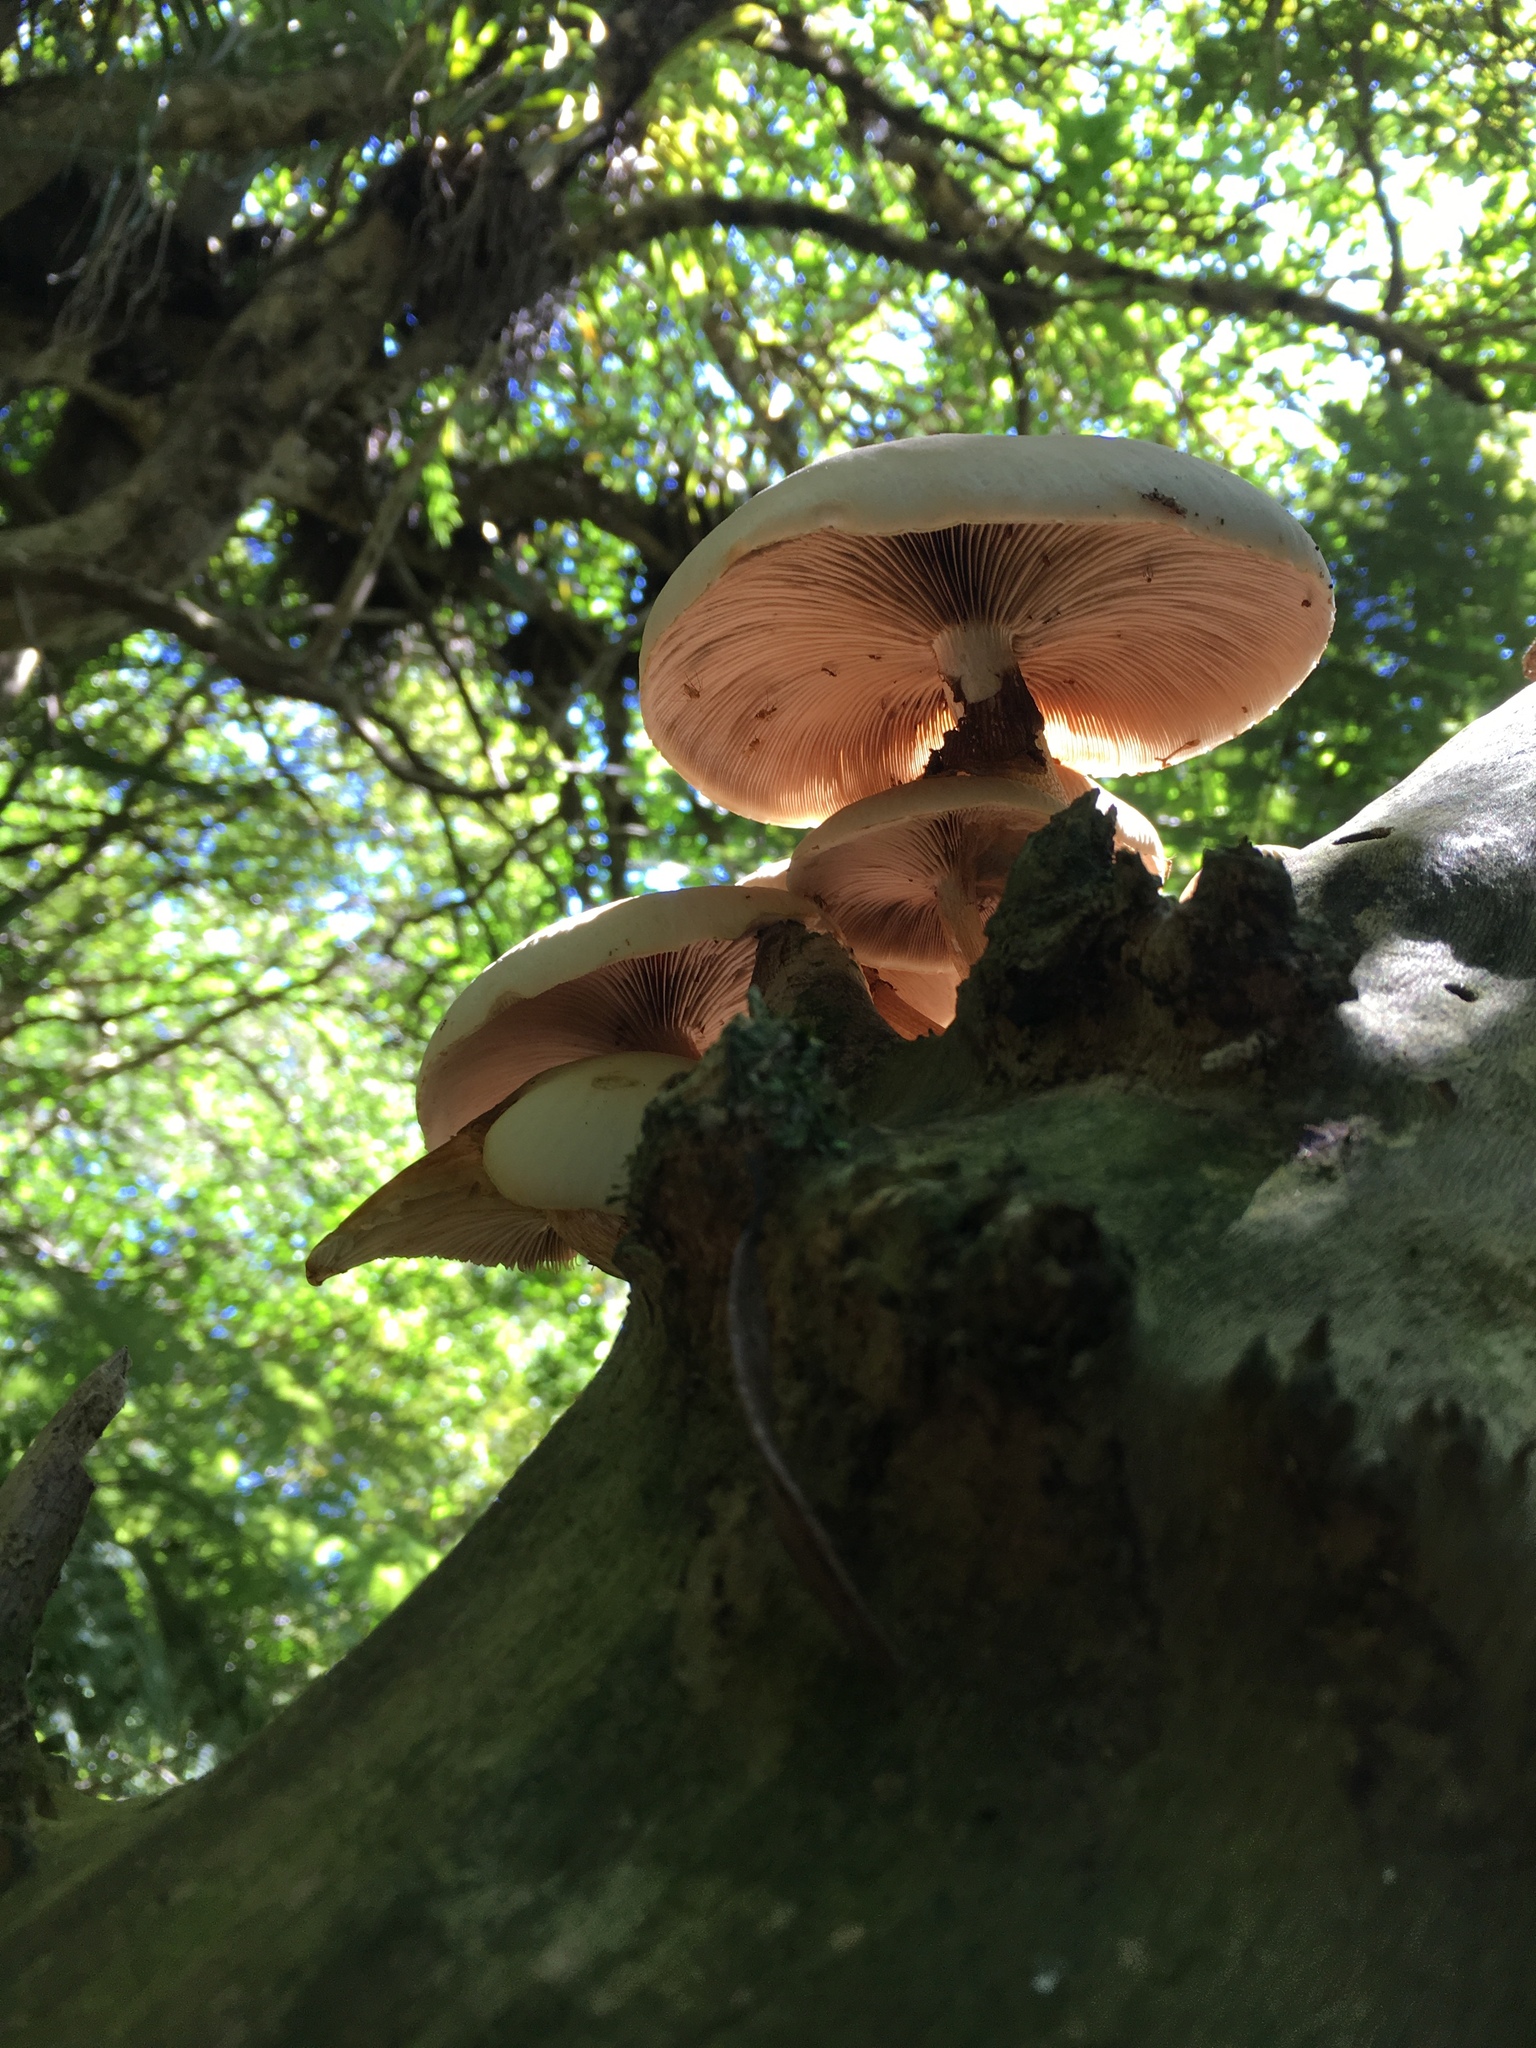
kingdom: Fungi
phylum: Basidiomycota
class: Agaricomycetes
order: Agaricales
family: Tubariaceae
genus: Cyclocybe
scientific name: Cyclocybe parasitica
